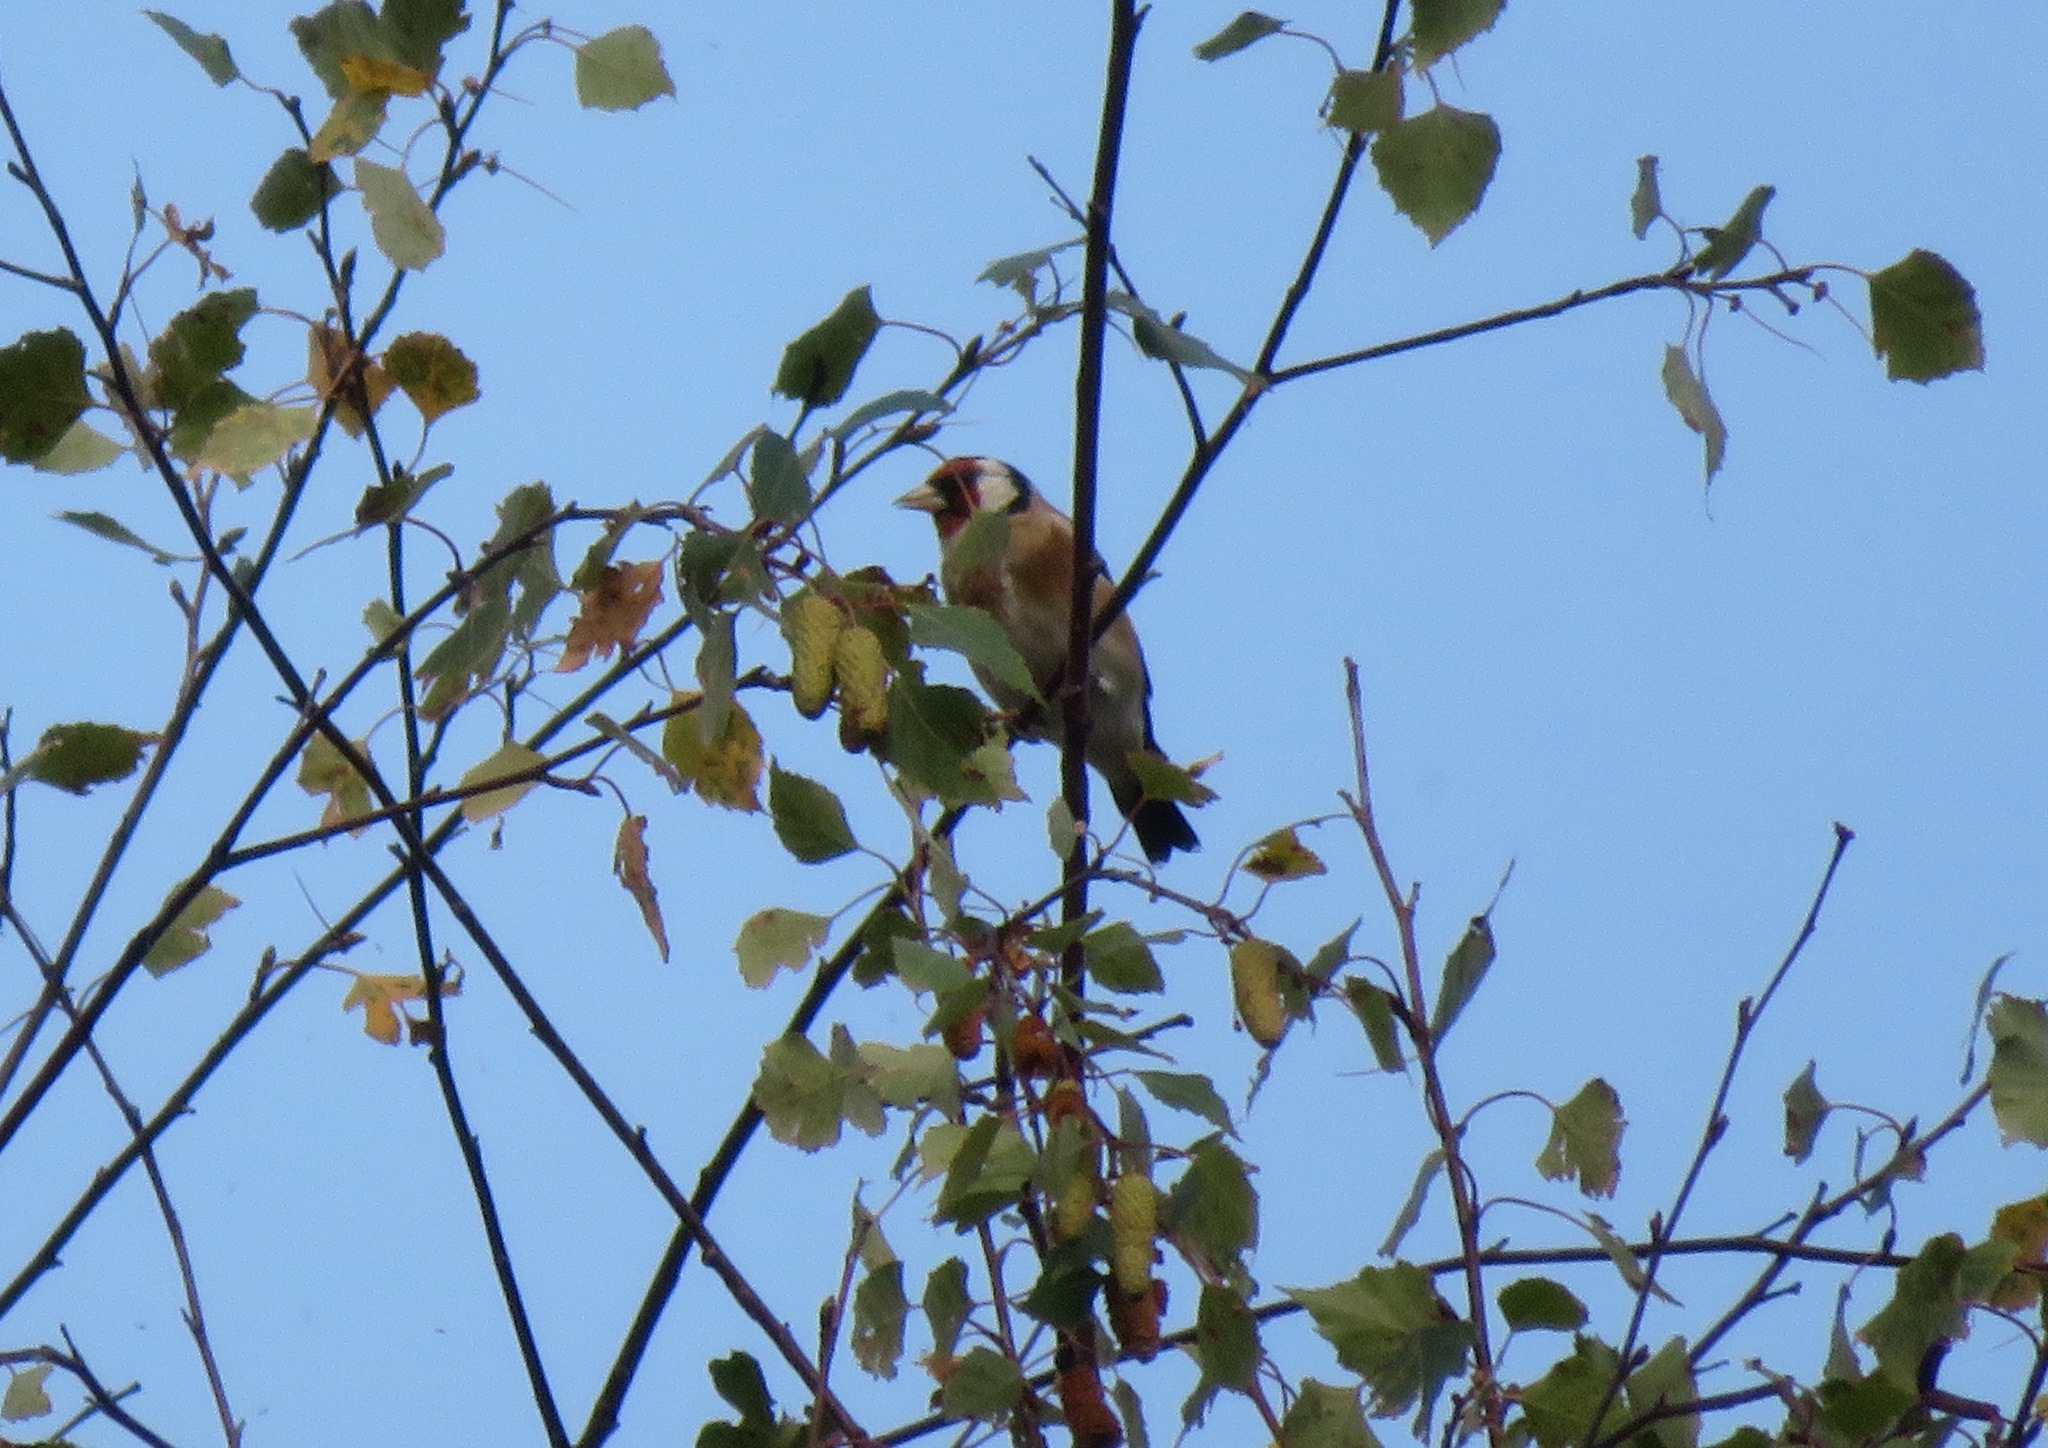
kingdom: Animalia
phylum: Chordata
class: Aves
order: Passeriformes
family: Fringillidae
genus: Carduelis
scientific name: Carduelis carduelis
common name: European goldfinch
